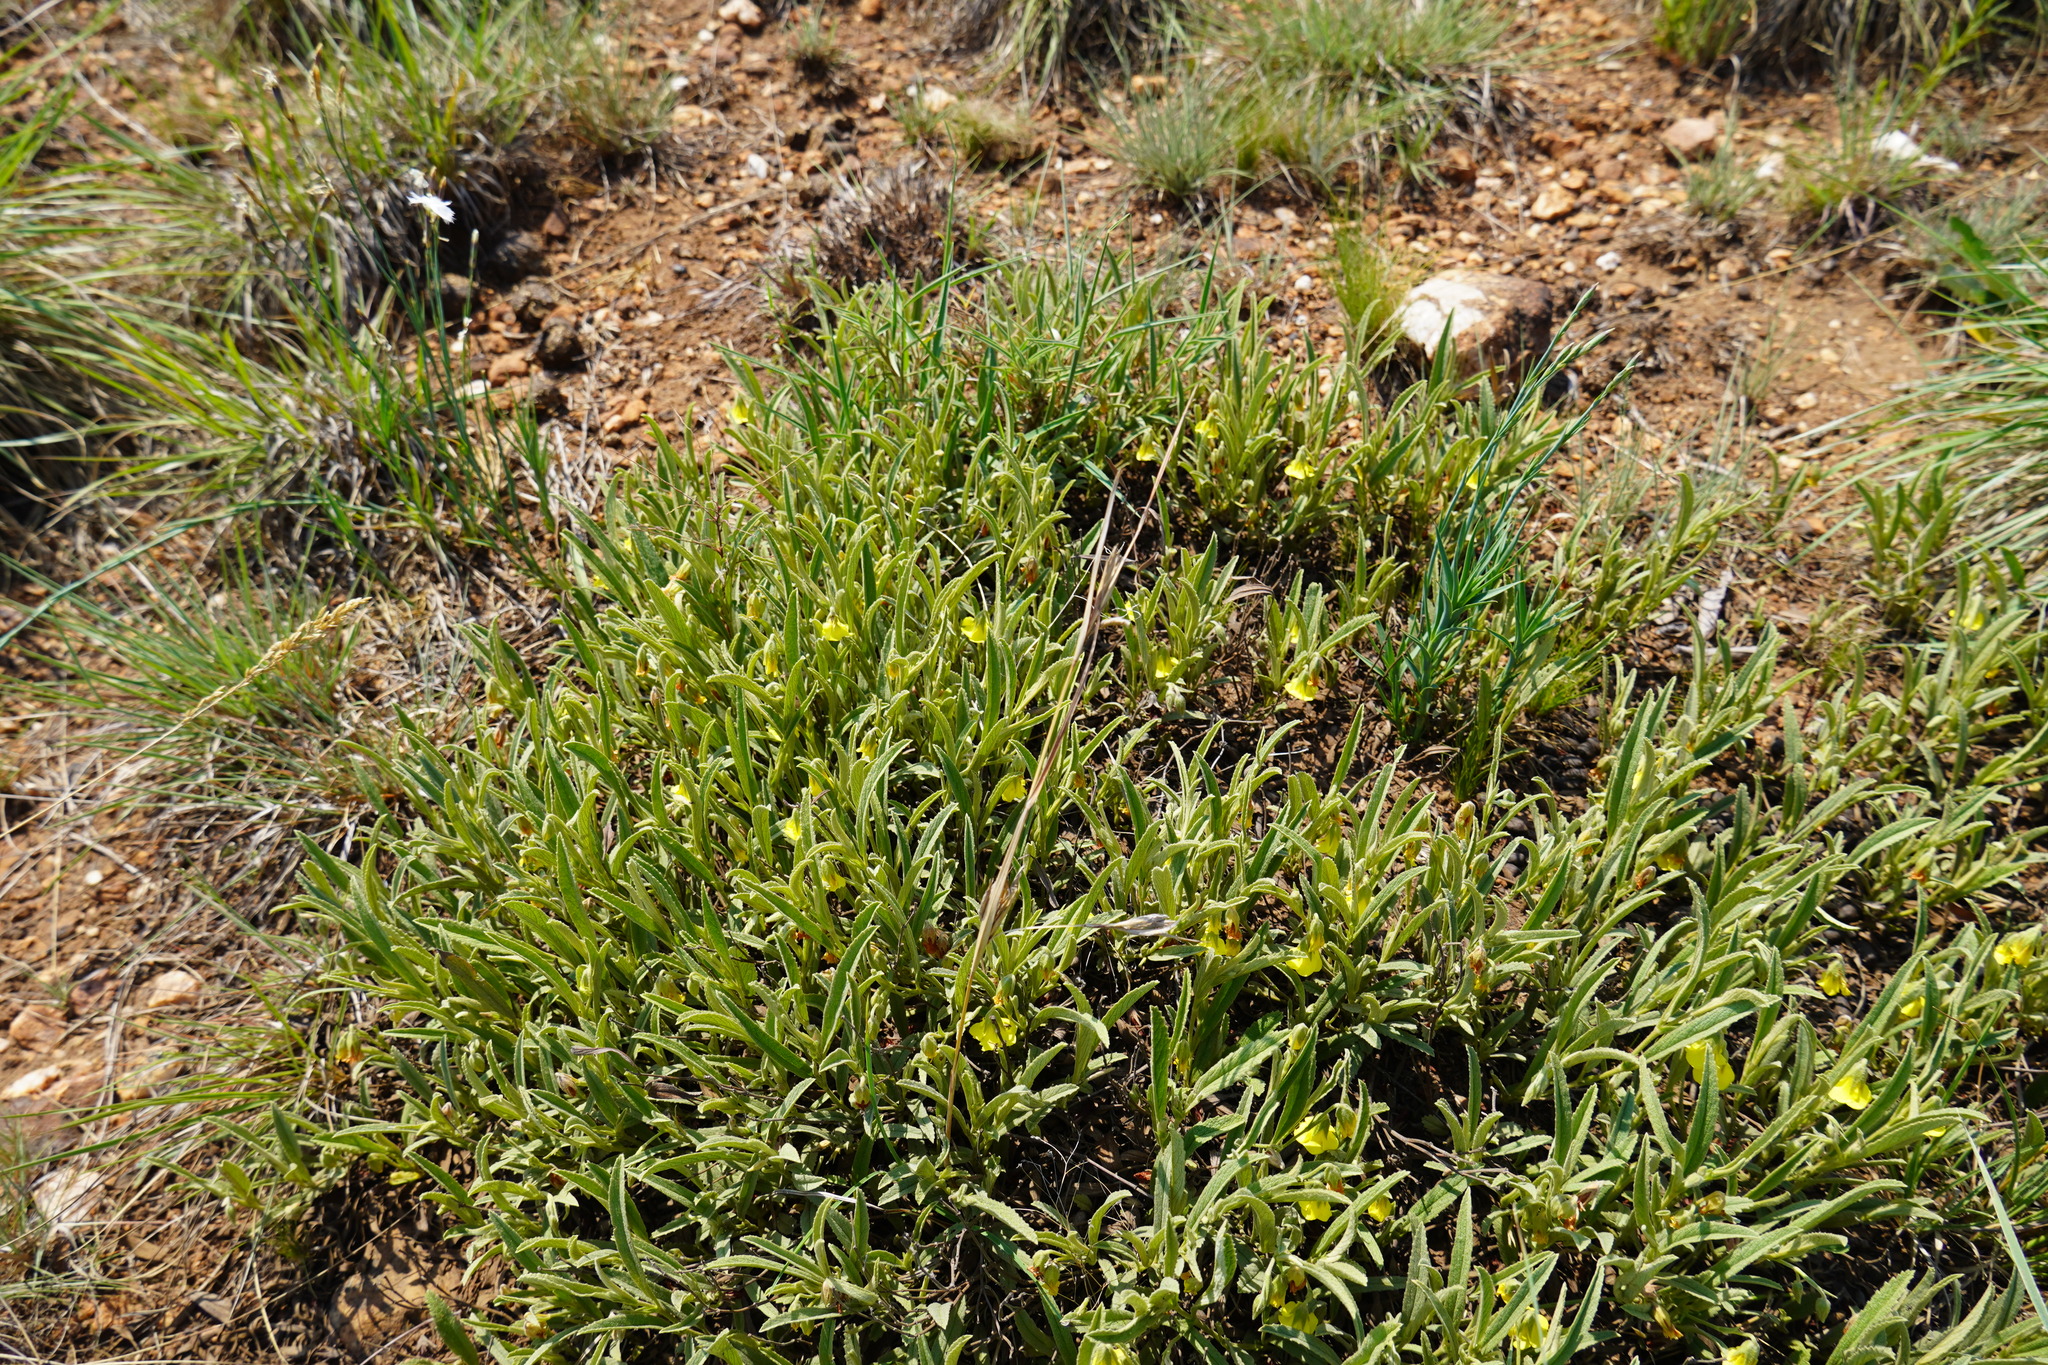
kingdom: Plantae
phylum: Tracheophyta
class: Magnoliopsida
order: Malvales
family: Malvaceae
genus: Hermannia
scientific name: Hermannia lancifolia
